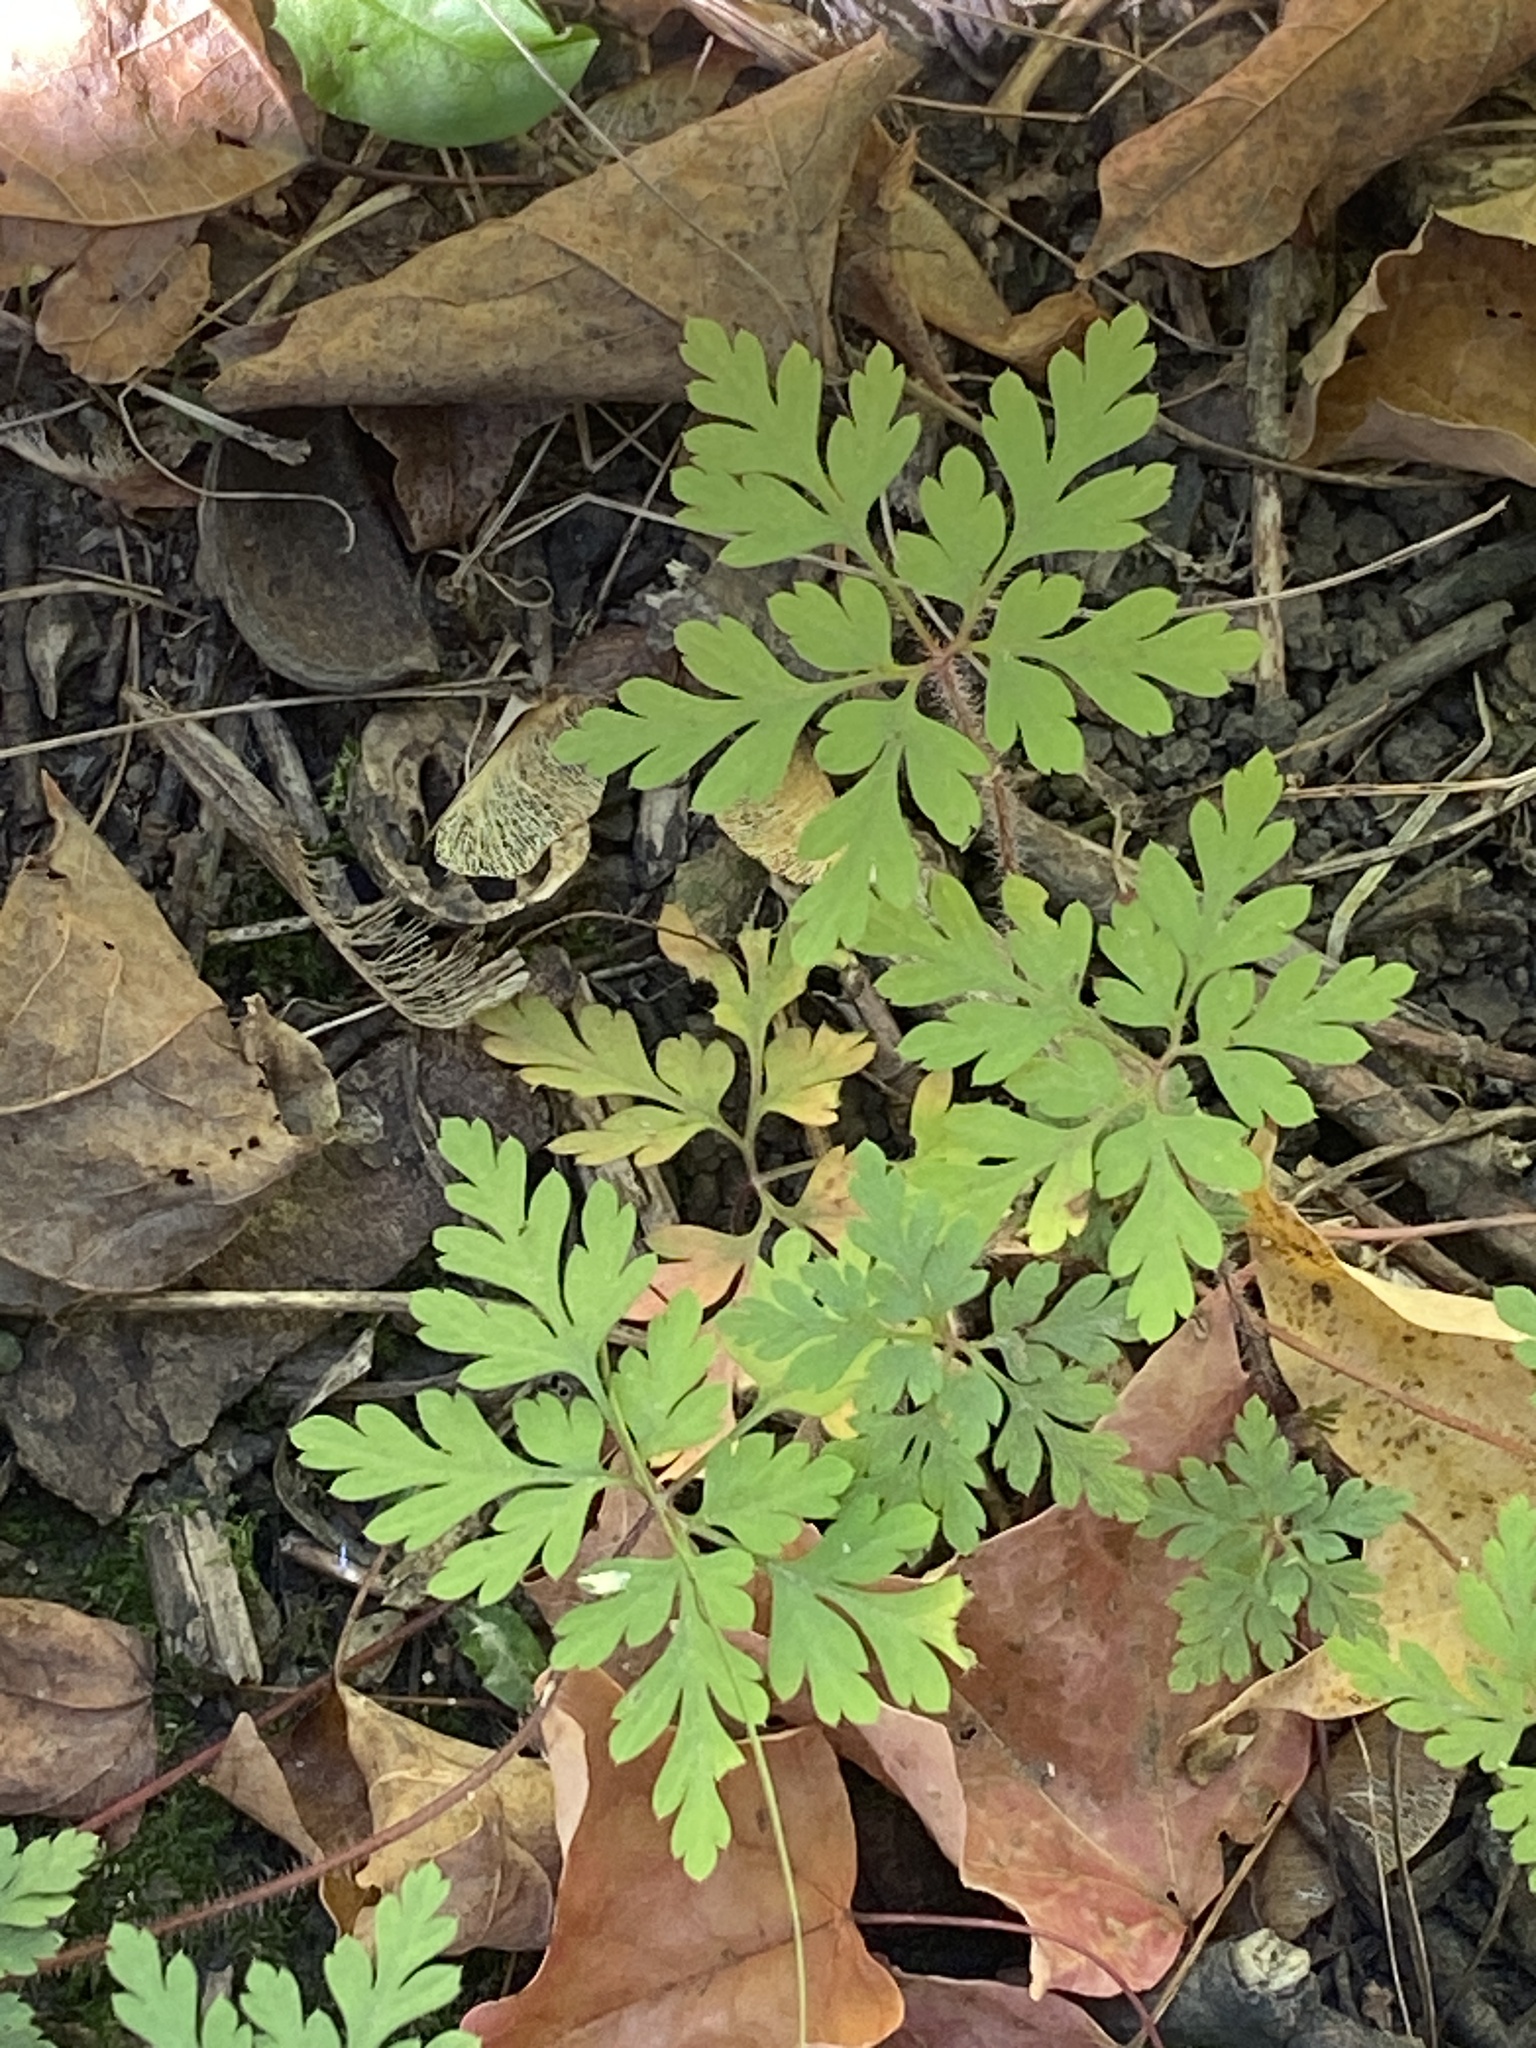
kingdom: Plantae
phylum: Tracheophyta
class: Magnoliopsida
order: Geraniales
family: Geraniaceae
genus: Geranium
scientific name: Geranium robertianum
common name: Herb-robert
